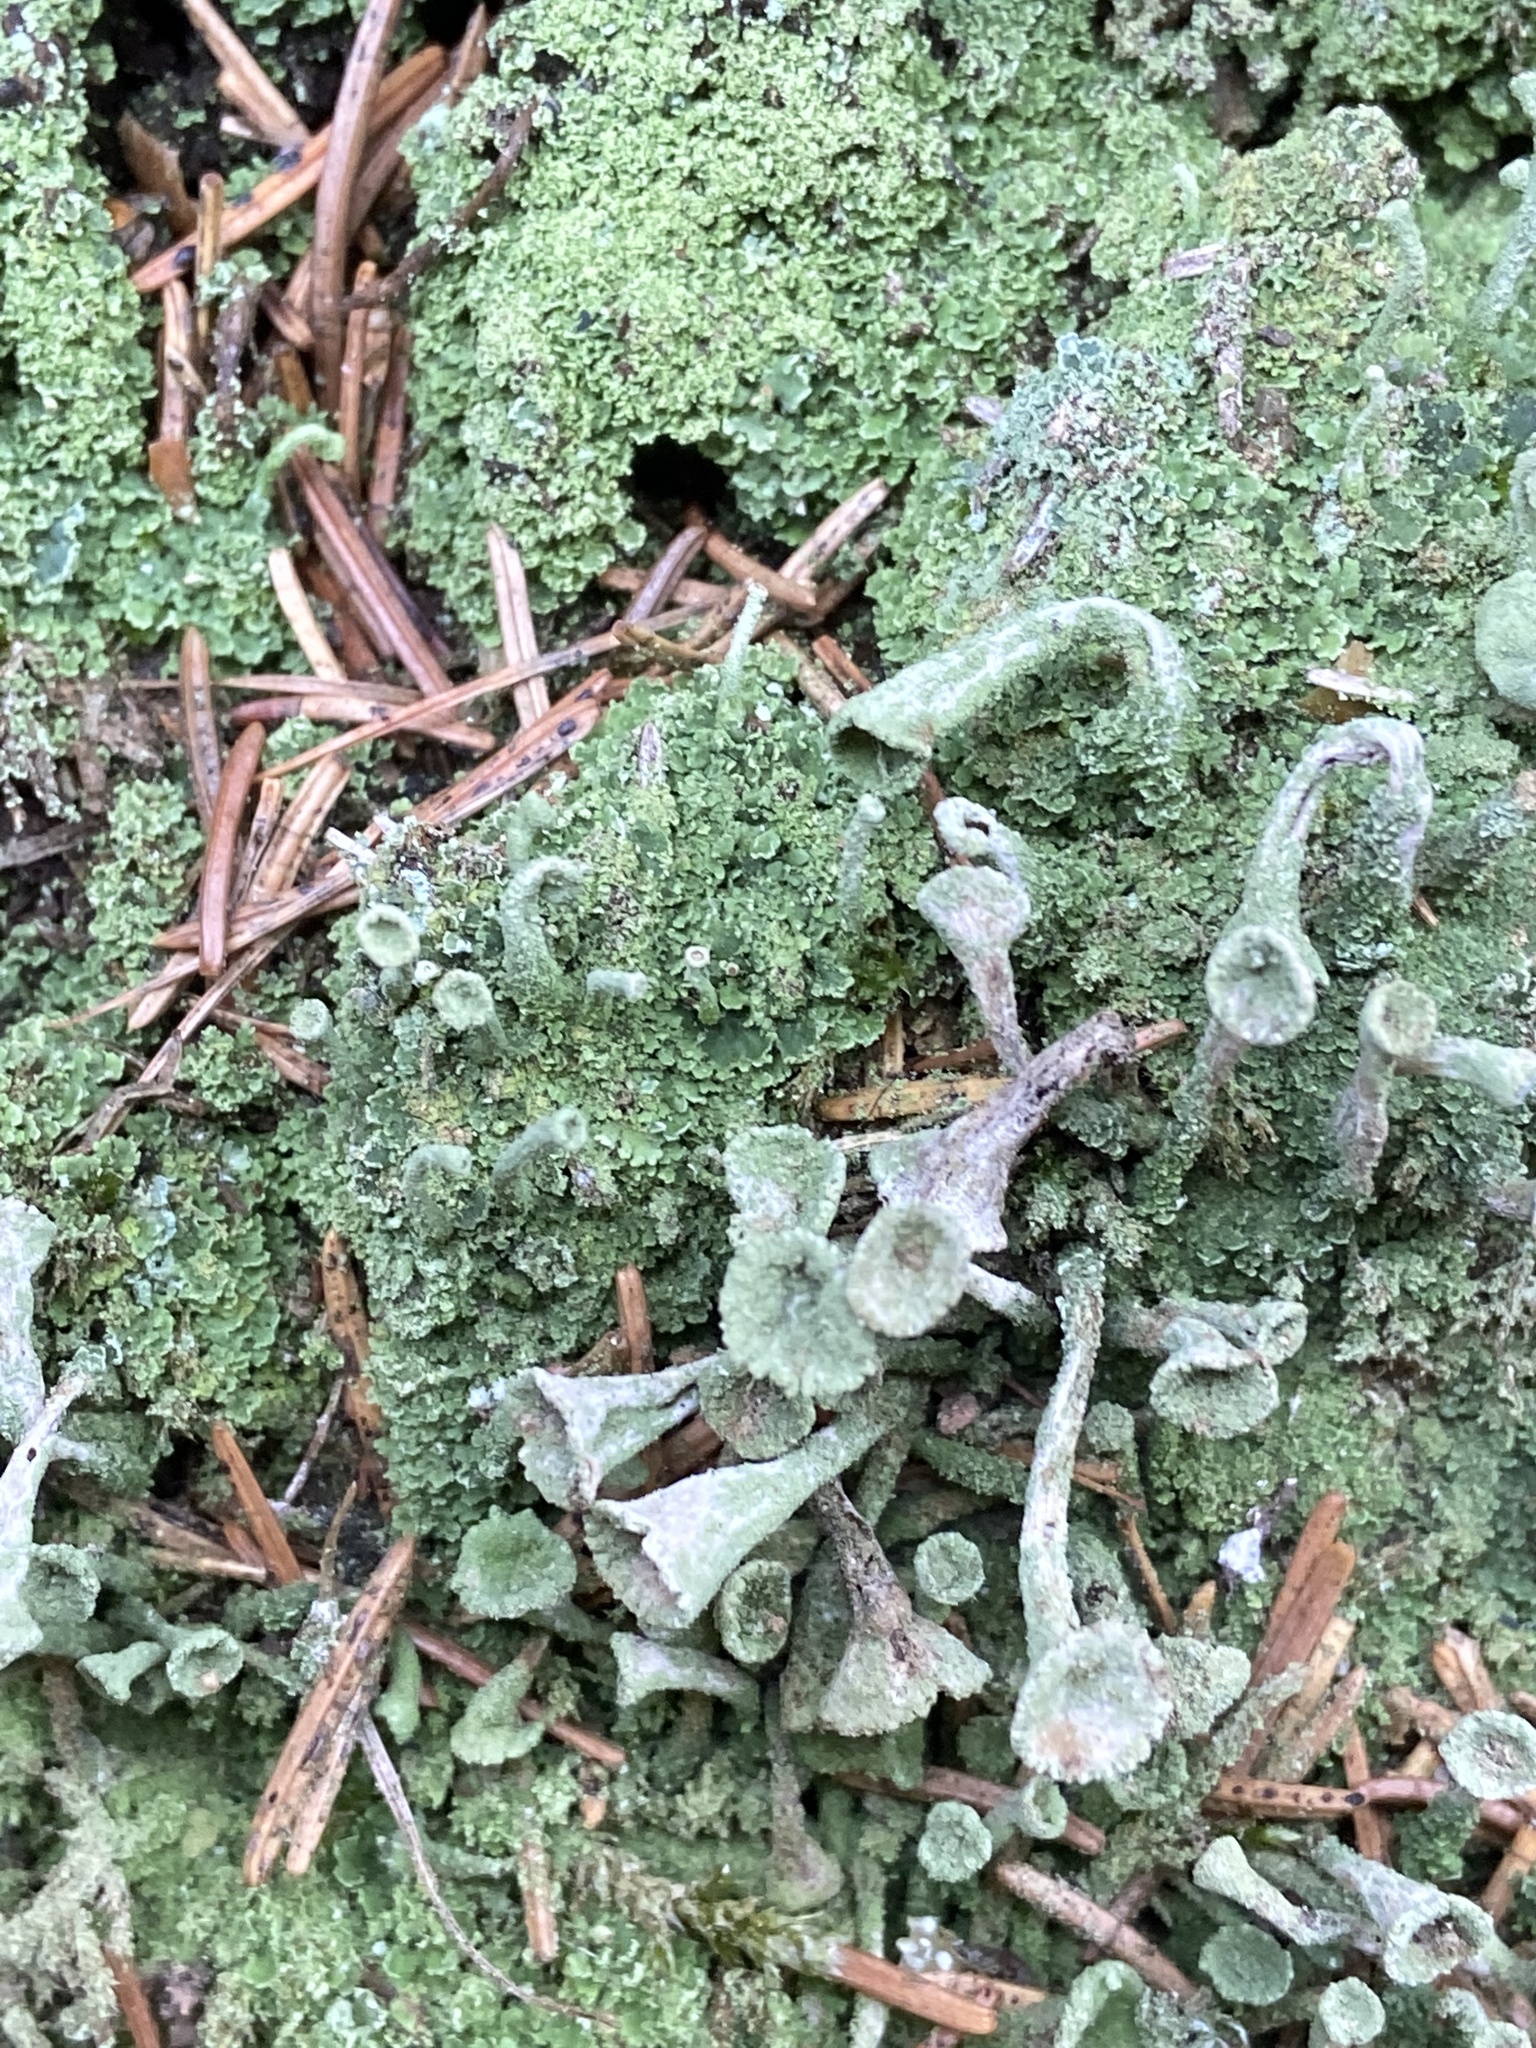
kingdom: Fungi
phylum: Ascomycota
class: Lecanoromycetes
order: Lecanorales
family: Cladoniaceae
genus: Cladonia
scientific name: Cladonia
